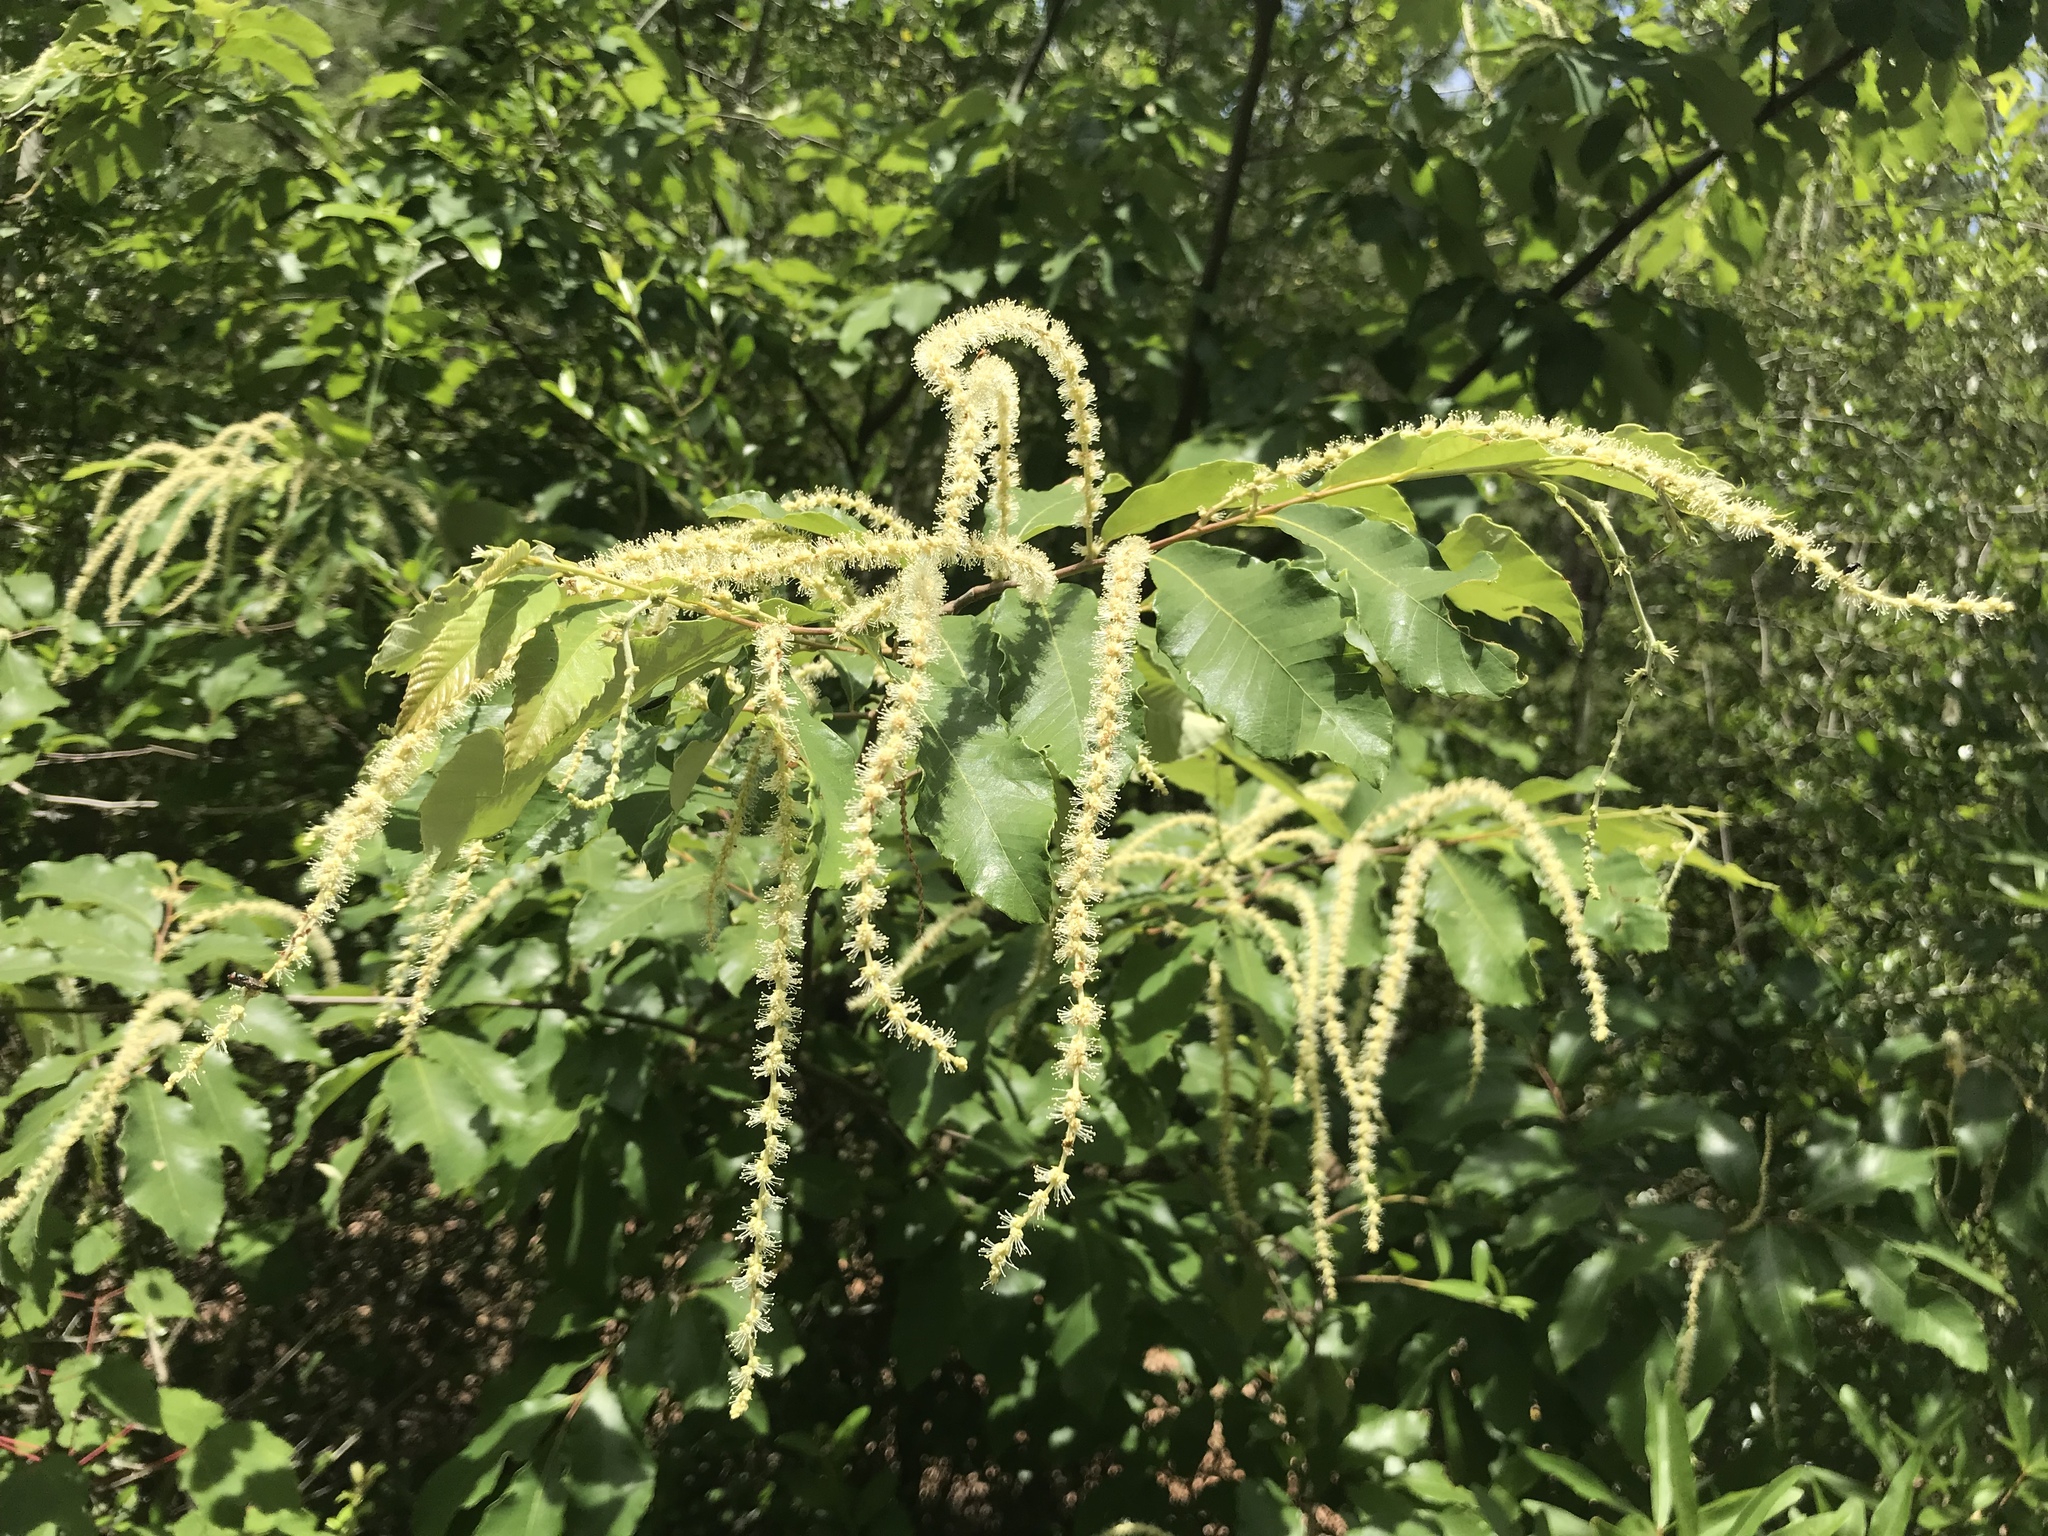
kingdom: Plantae
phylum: Tracheophyta
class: Magnoliopsida
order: Fagales
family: Fagaceae
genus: Castanea
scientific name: Castanea pumila
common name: Chinkapin
